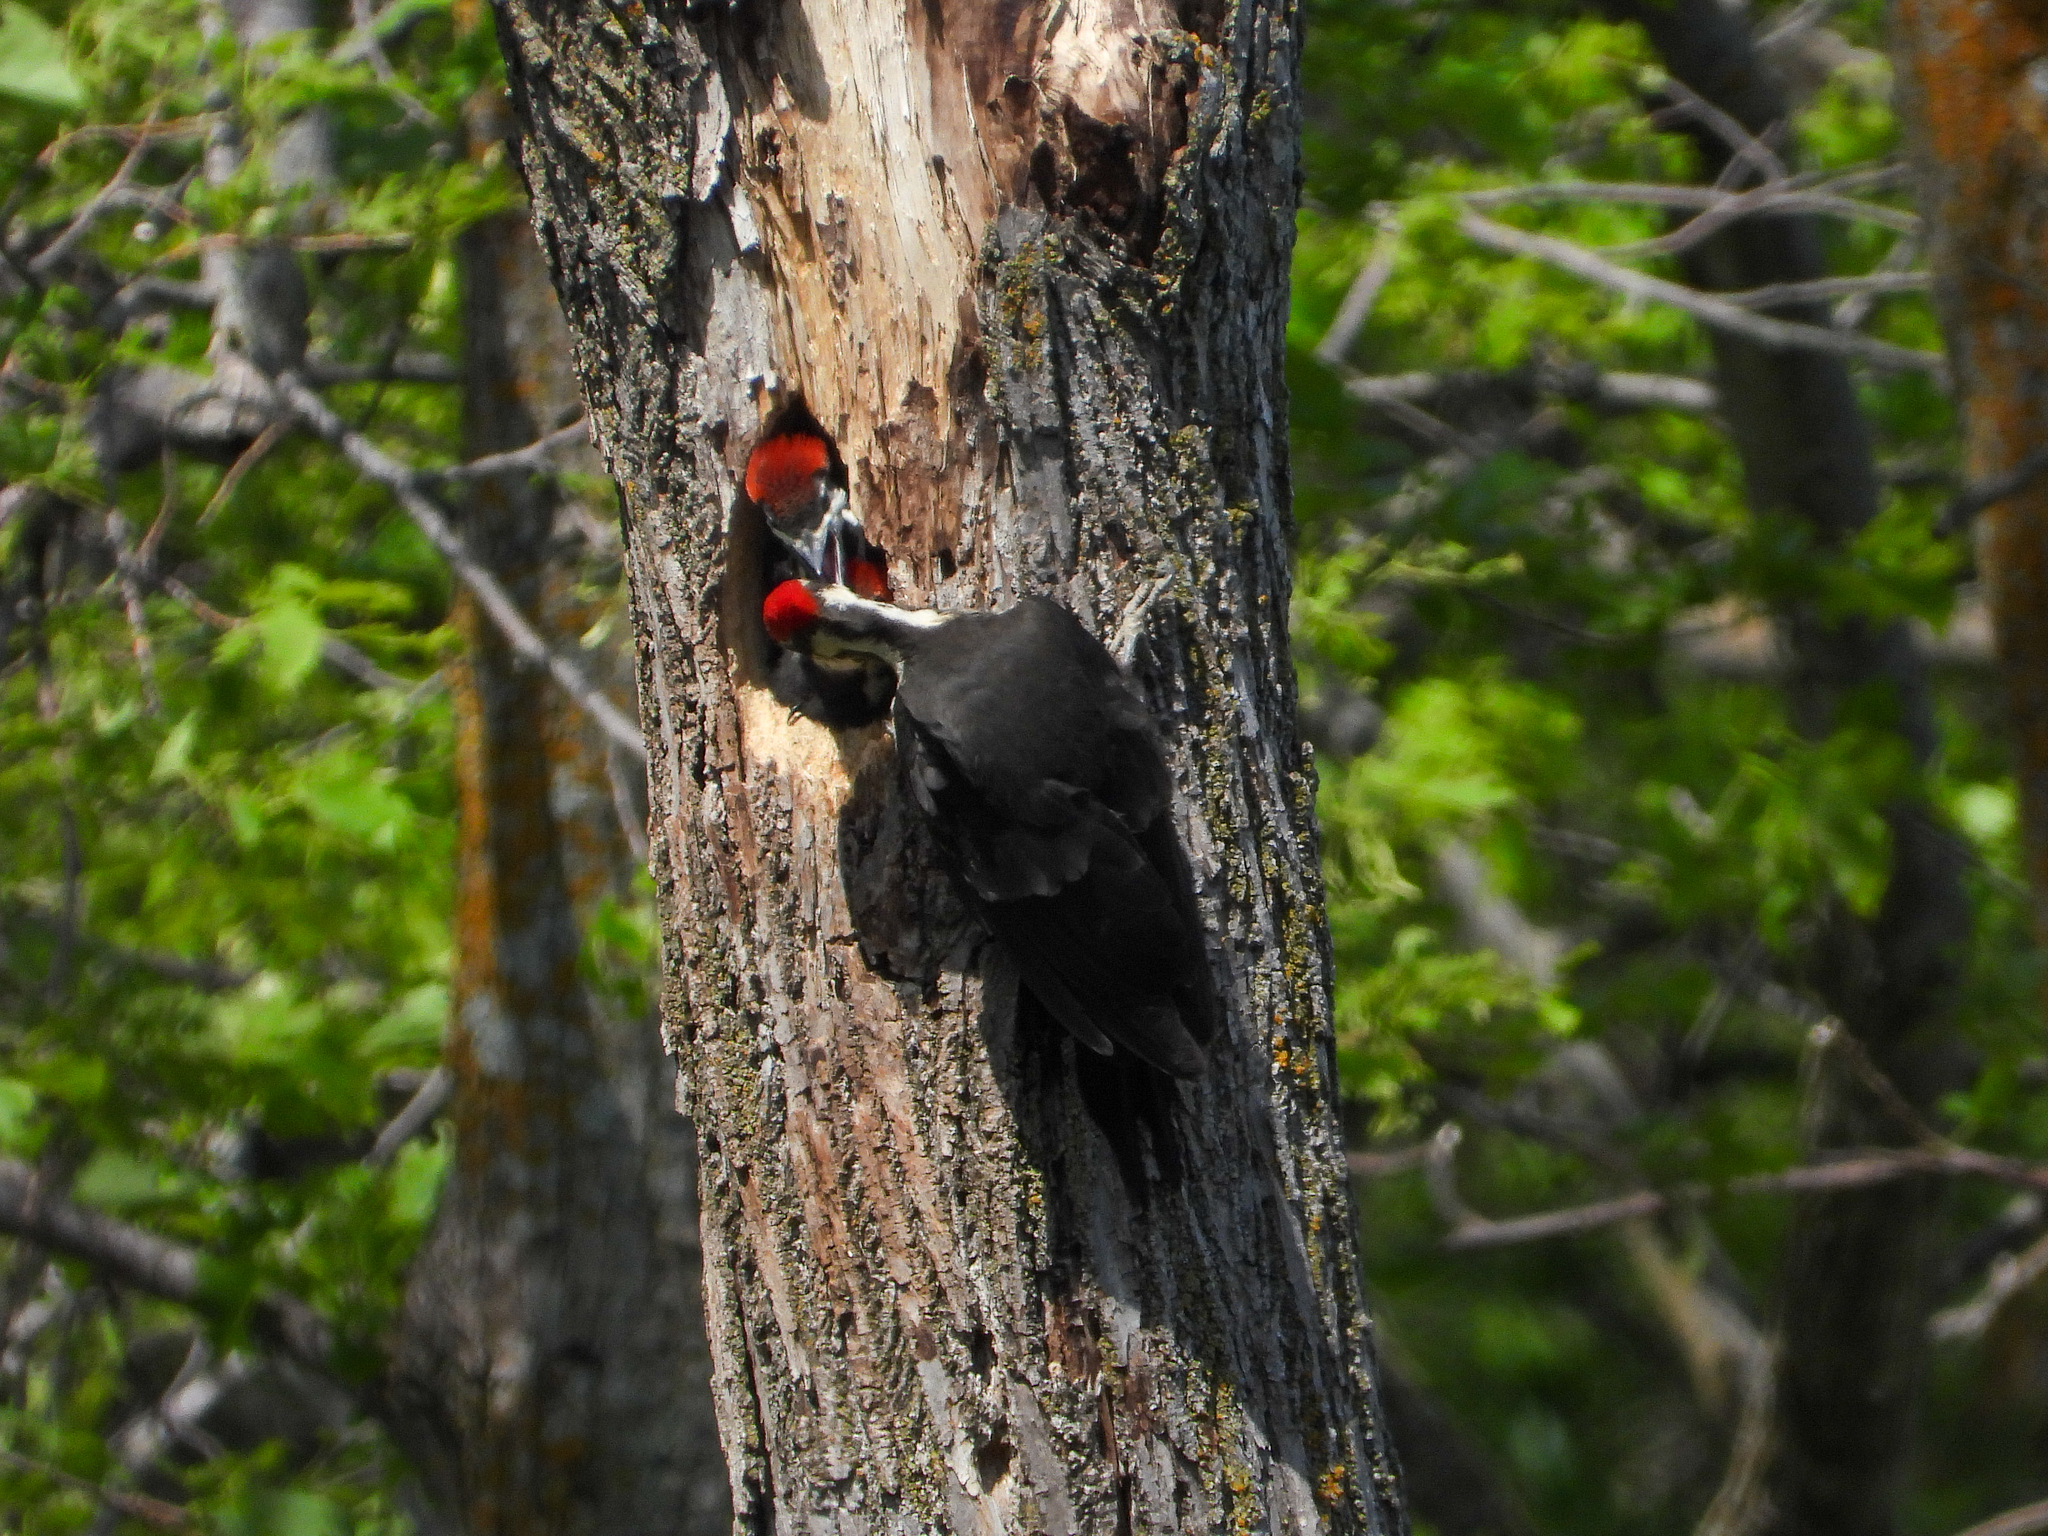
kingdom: Animalia
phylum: Chordata
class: Aves
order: Piciformes
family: Picidae
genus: Dryocopus
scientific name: Dryocopus pileatus
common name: Pileated woodpecker
